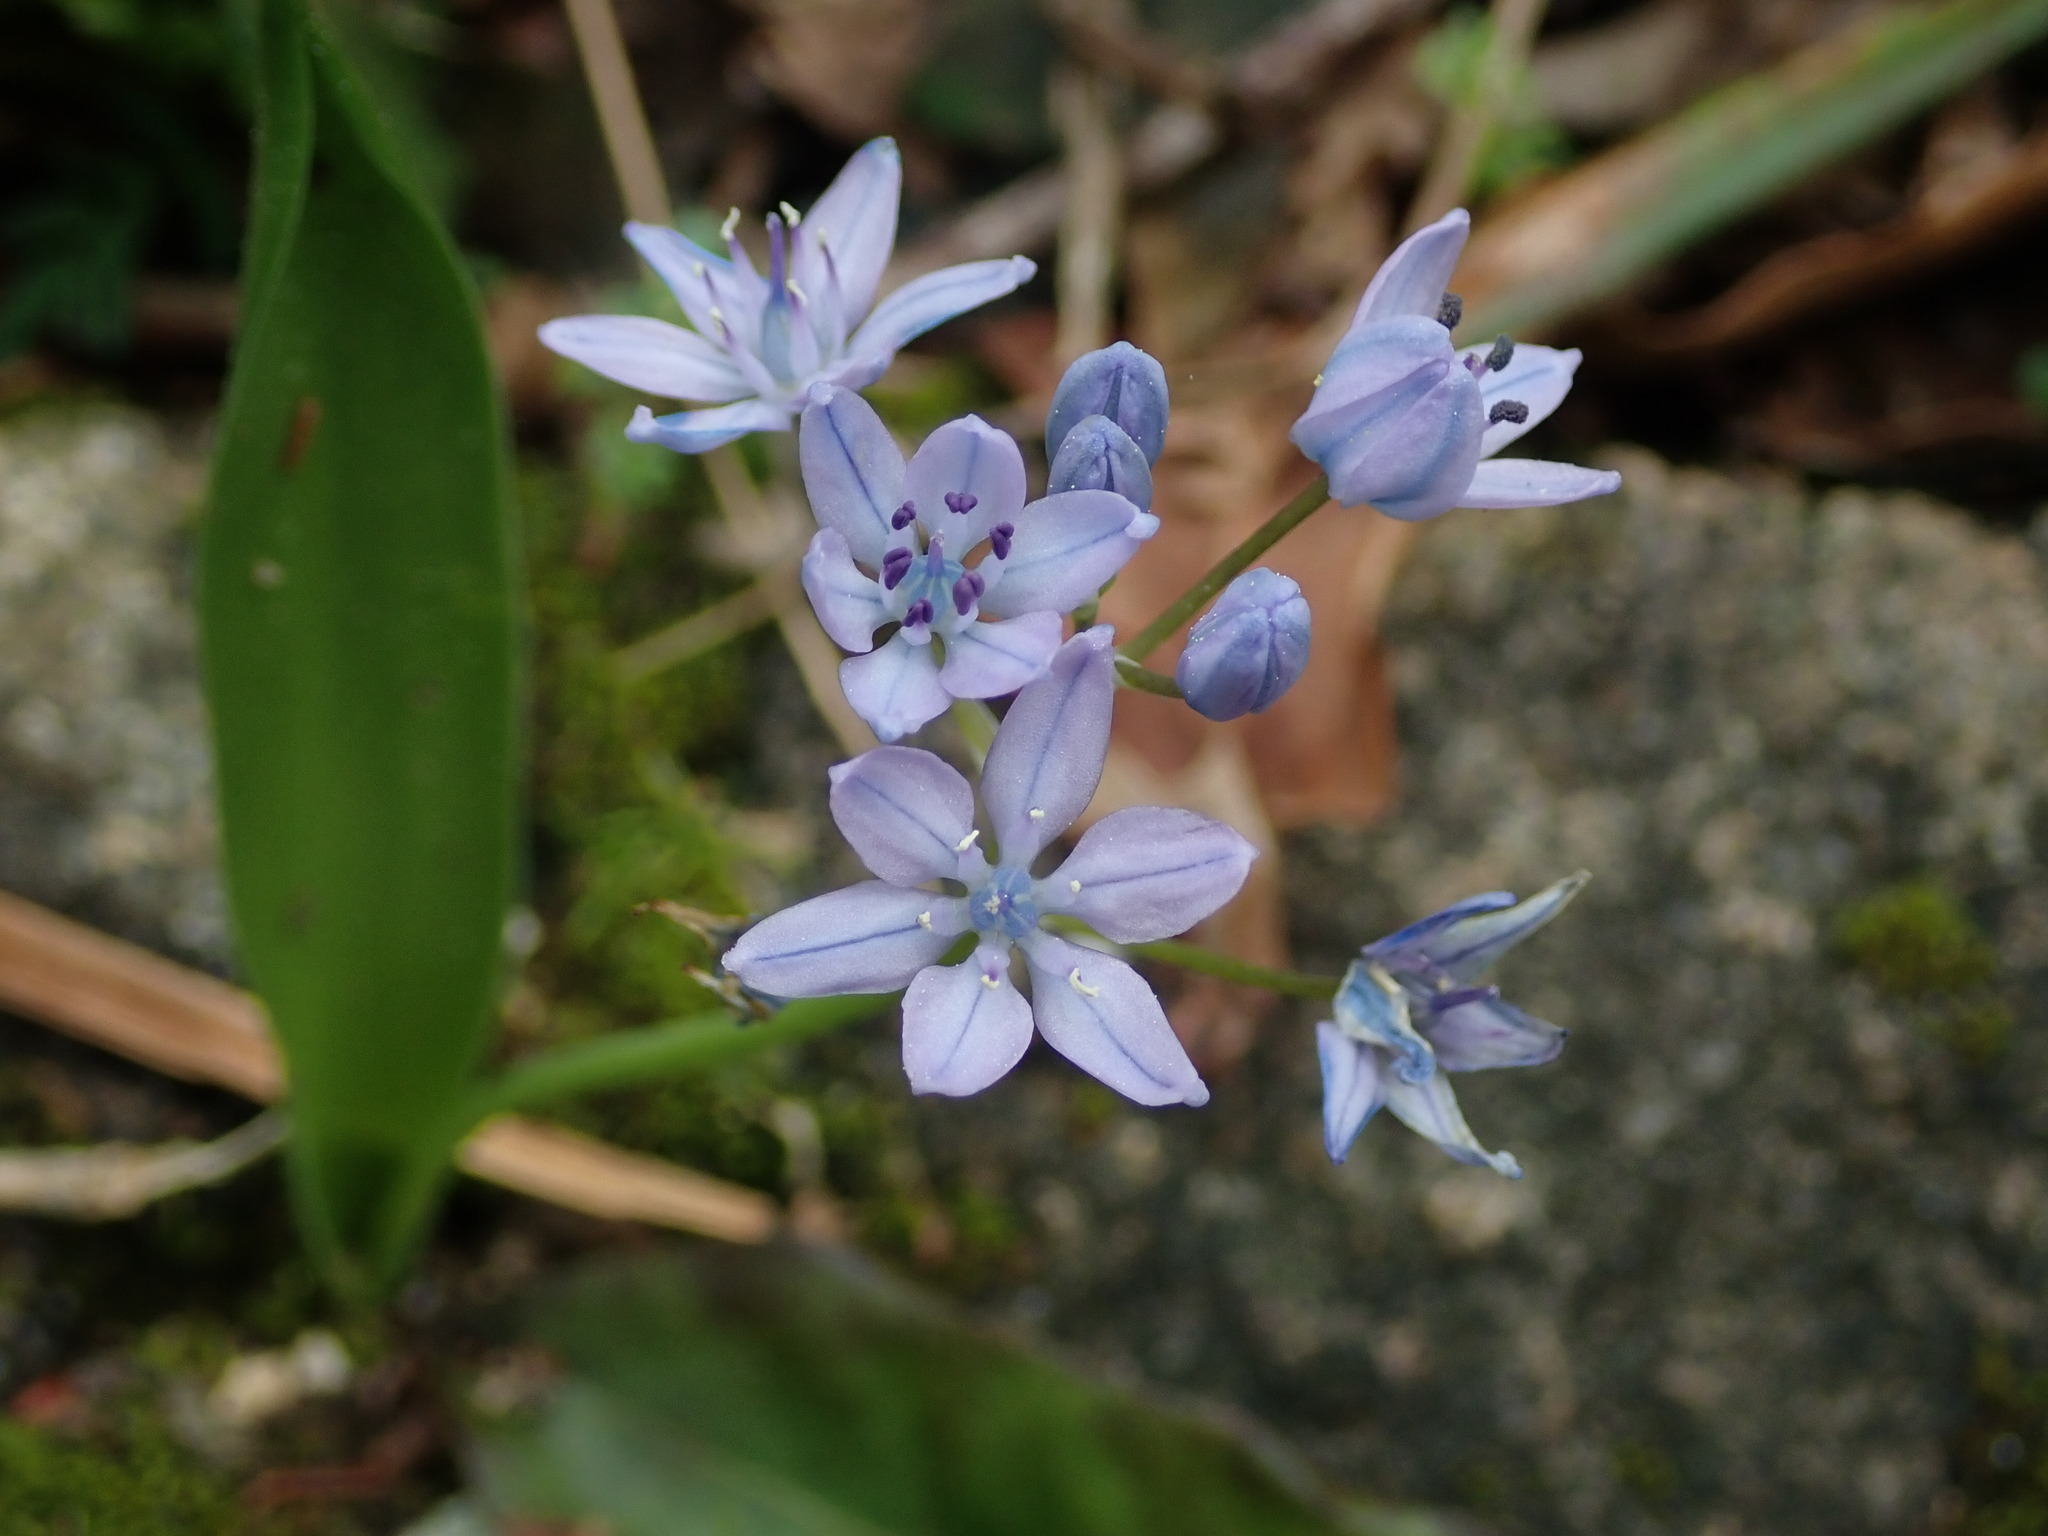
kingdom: Plantae
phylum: Tracheophyta
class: Liliopsida
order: Asparagales
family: Asparagaceae
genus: Scilla
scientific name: Scilla monophyllos
